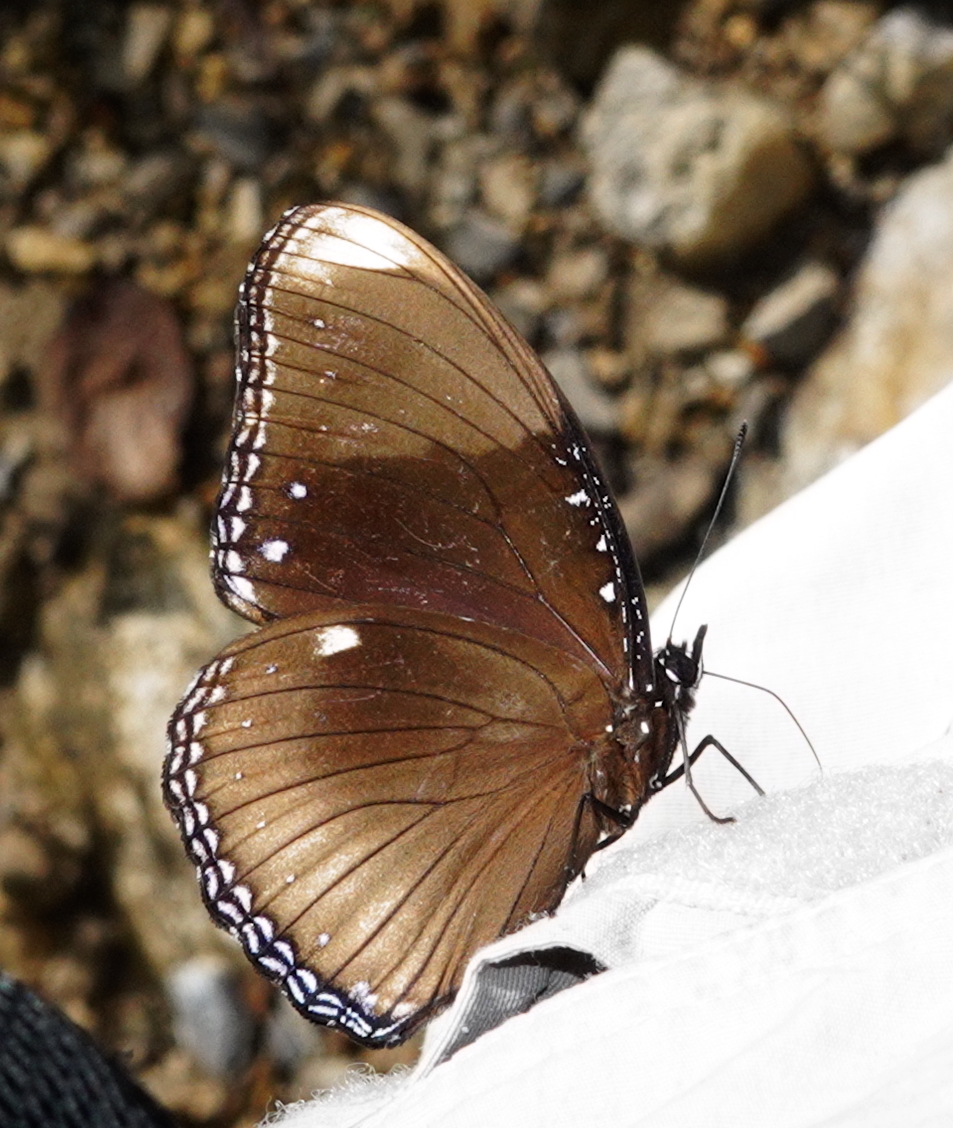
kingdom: Animalia
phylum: Arthropoda
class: Insecta
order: Lepidoptera
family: Nymphalidae
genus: Hypolimnas
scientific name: Hypolimnas antilope
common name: Spotted crow eggfly
